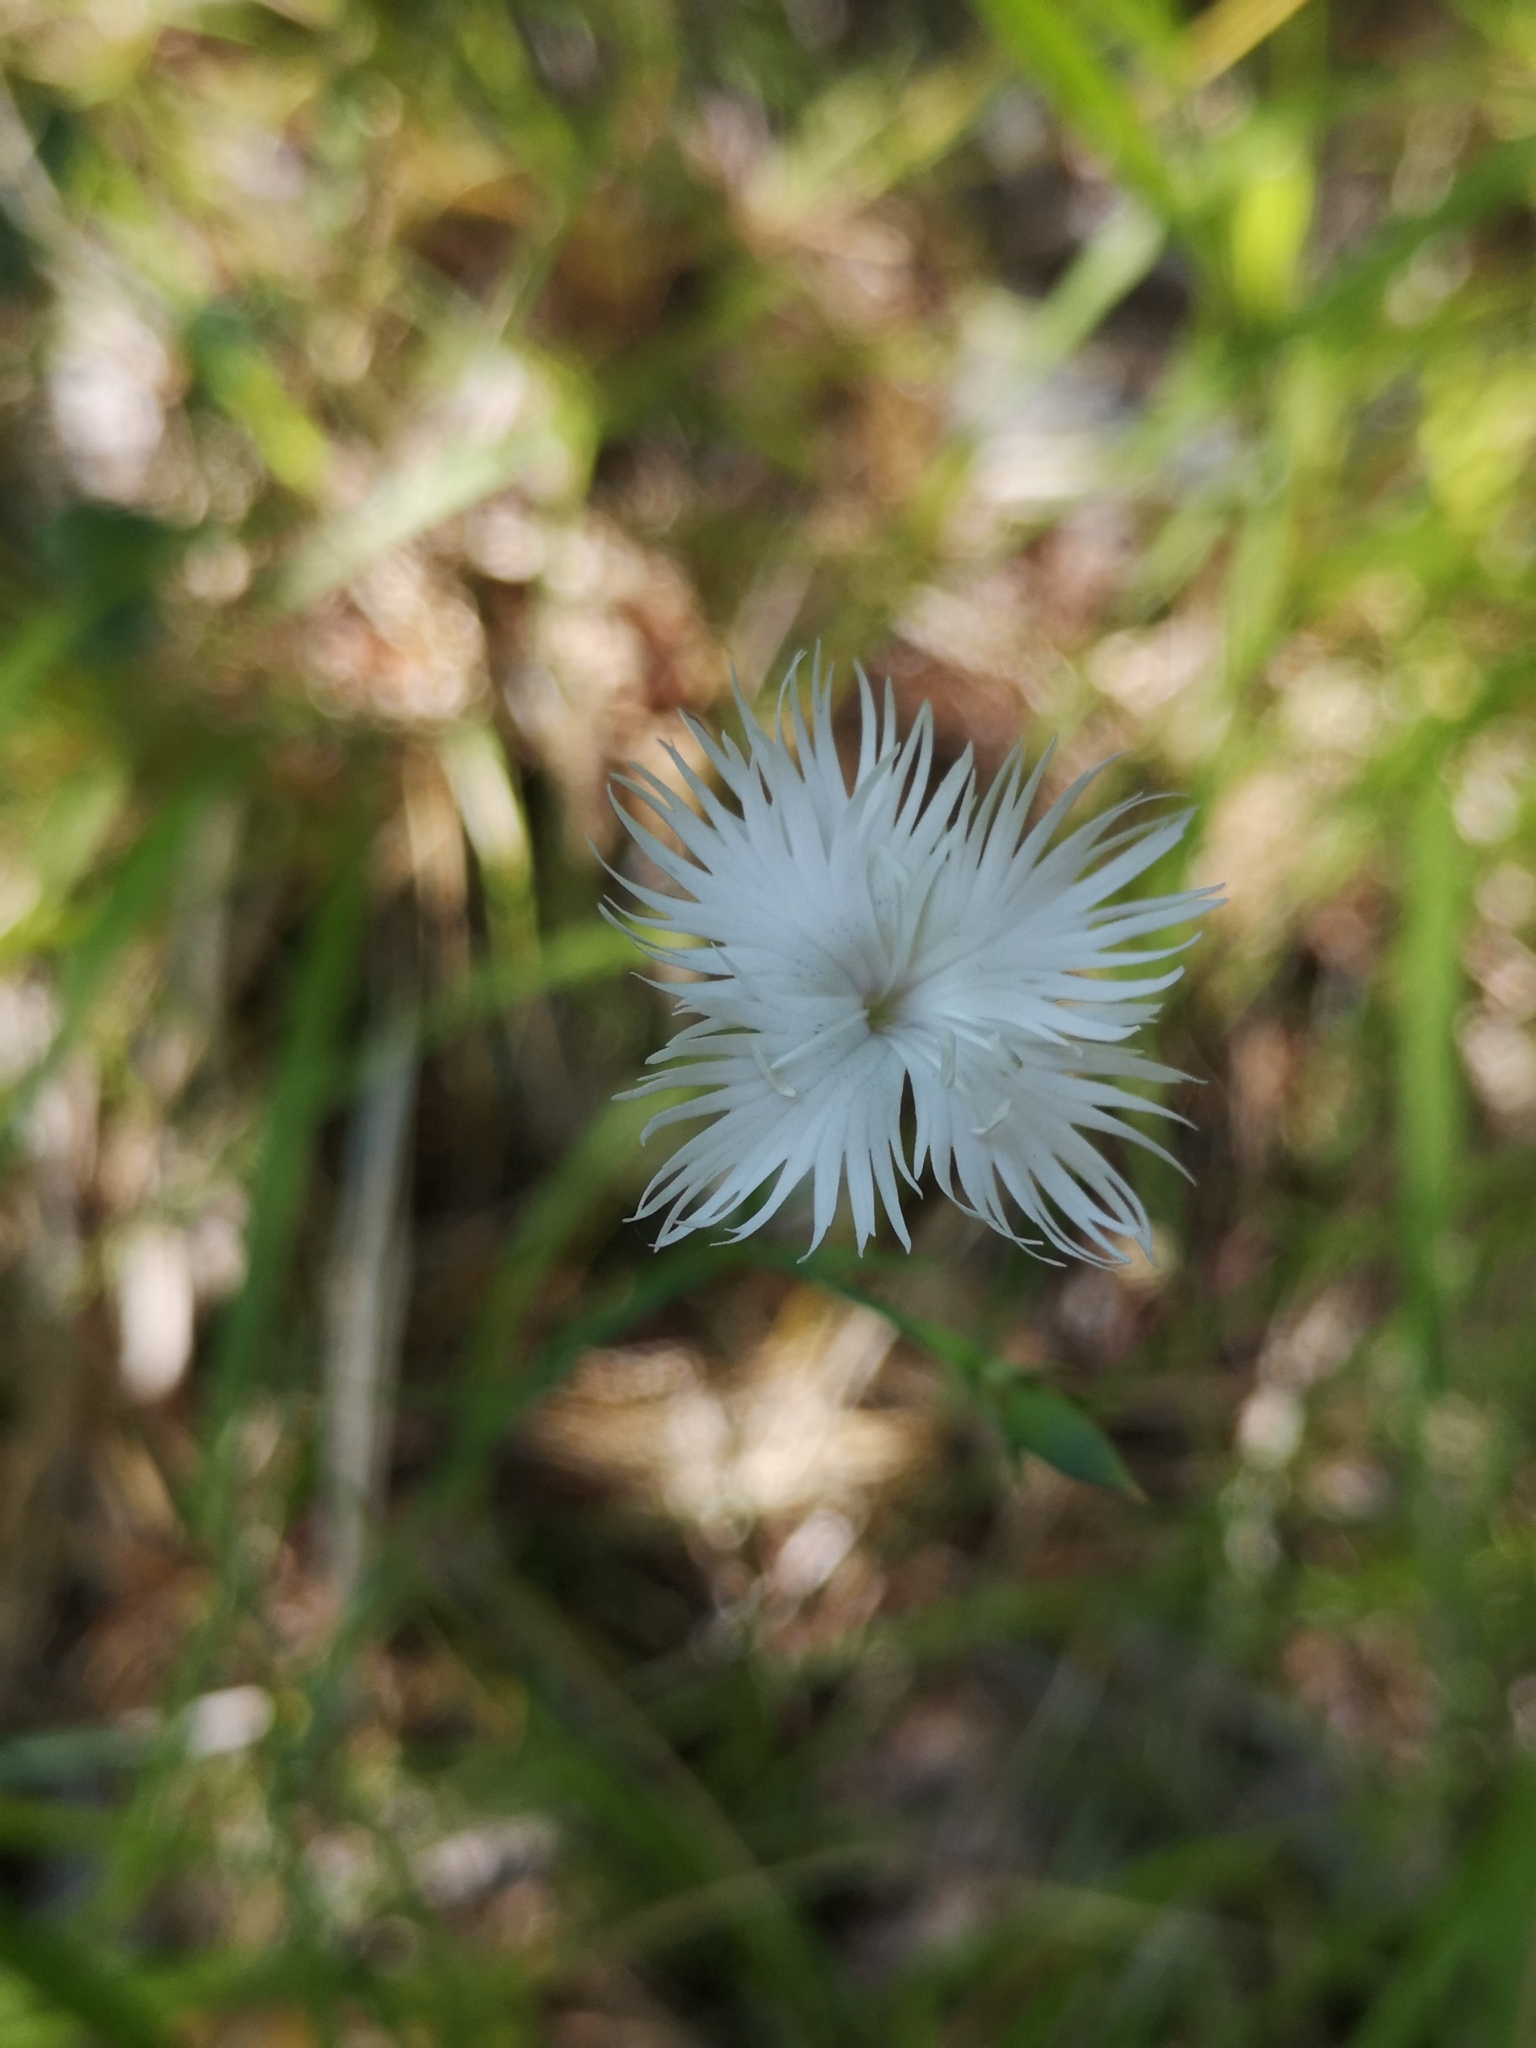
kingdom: Plantae
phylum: Tracheophyta
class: Magnoliopsida
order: Caryophyllales
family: Caryophyllaceae
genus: Dianthus
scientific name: Dianthus hyssopifolius
